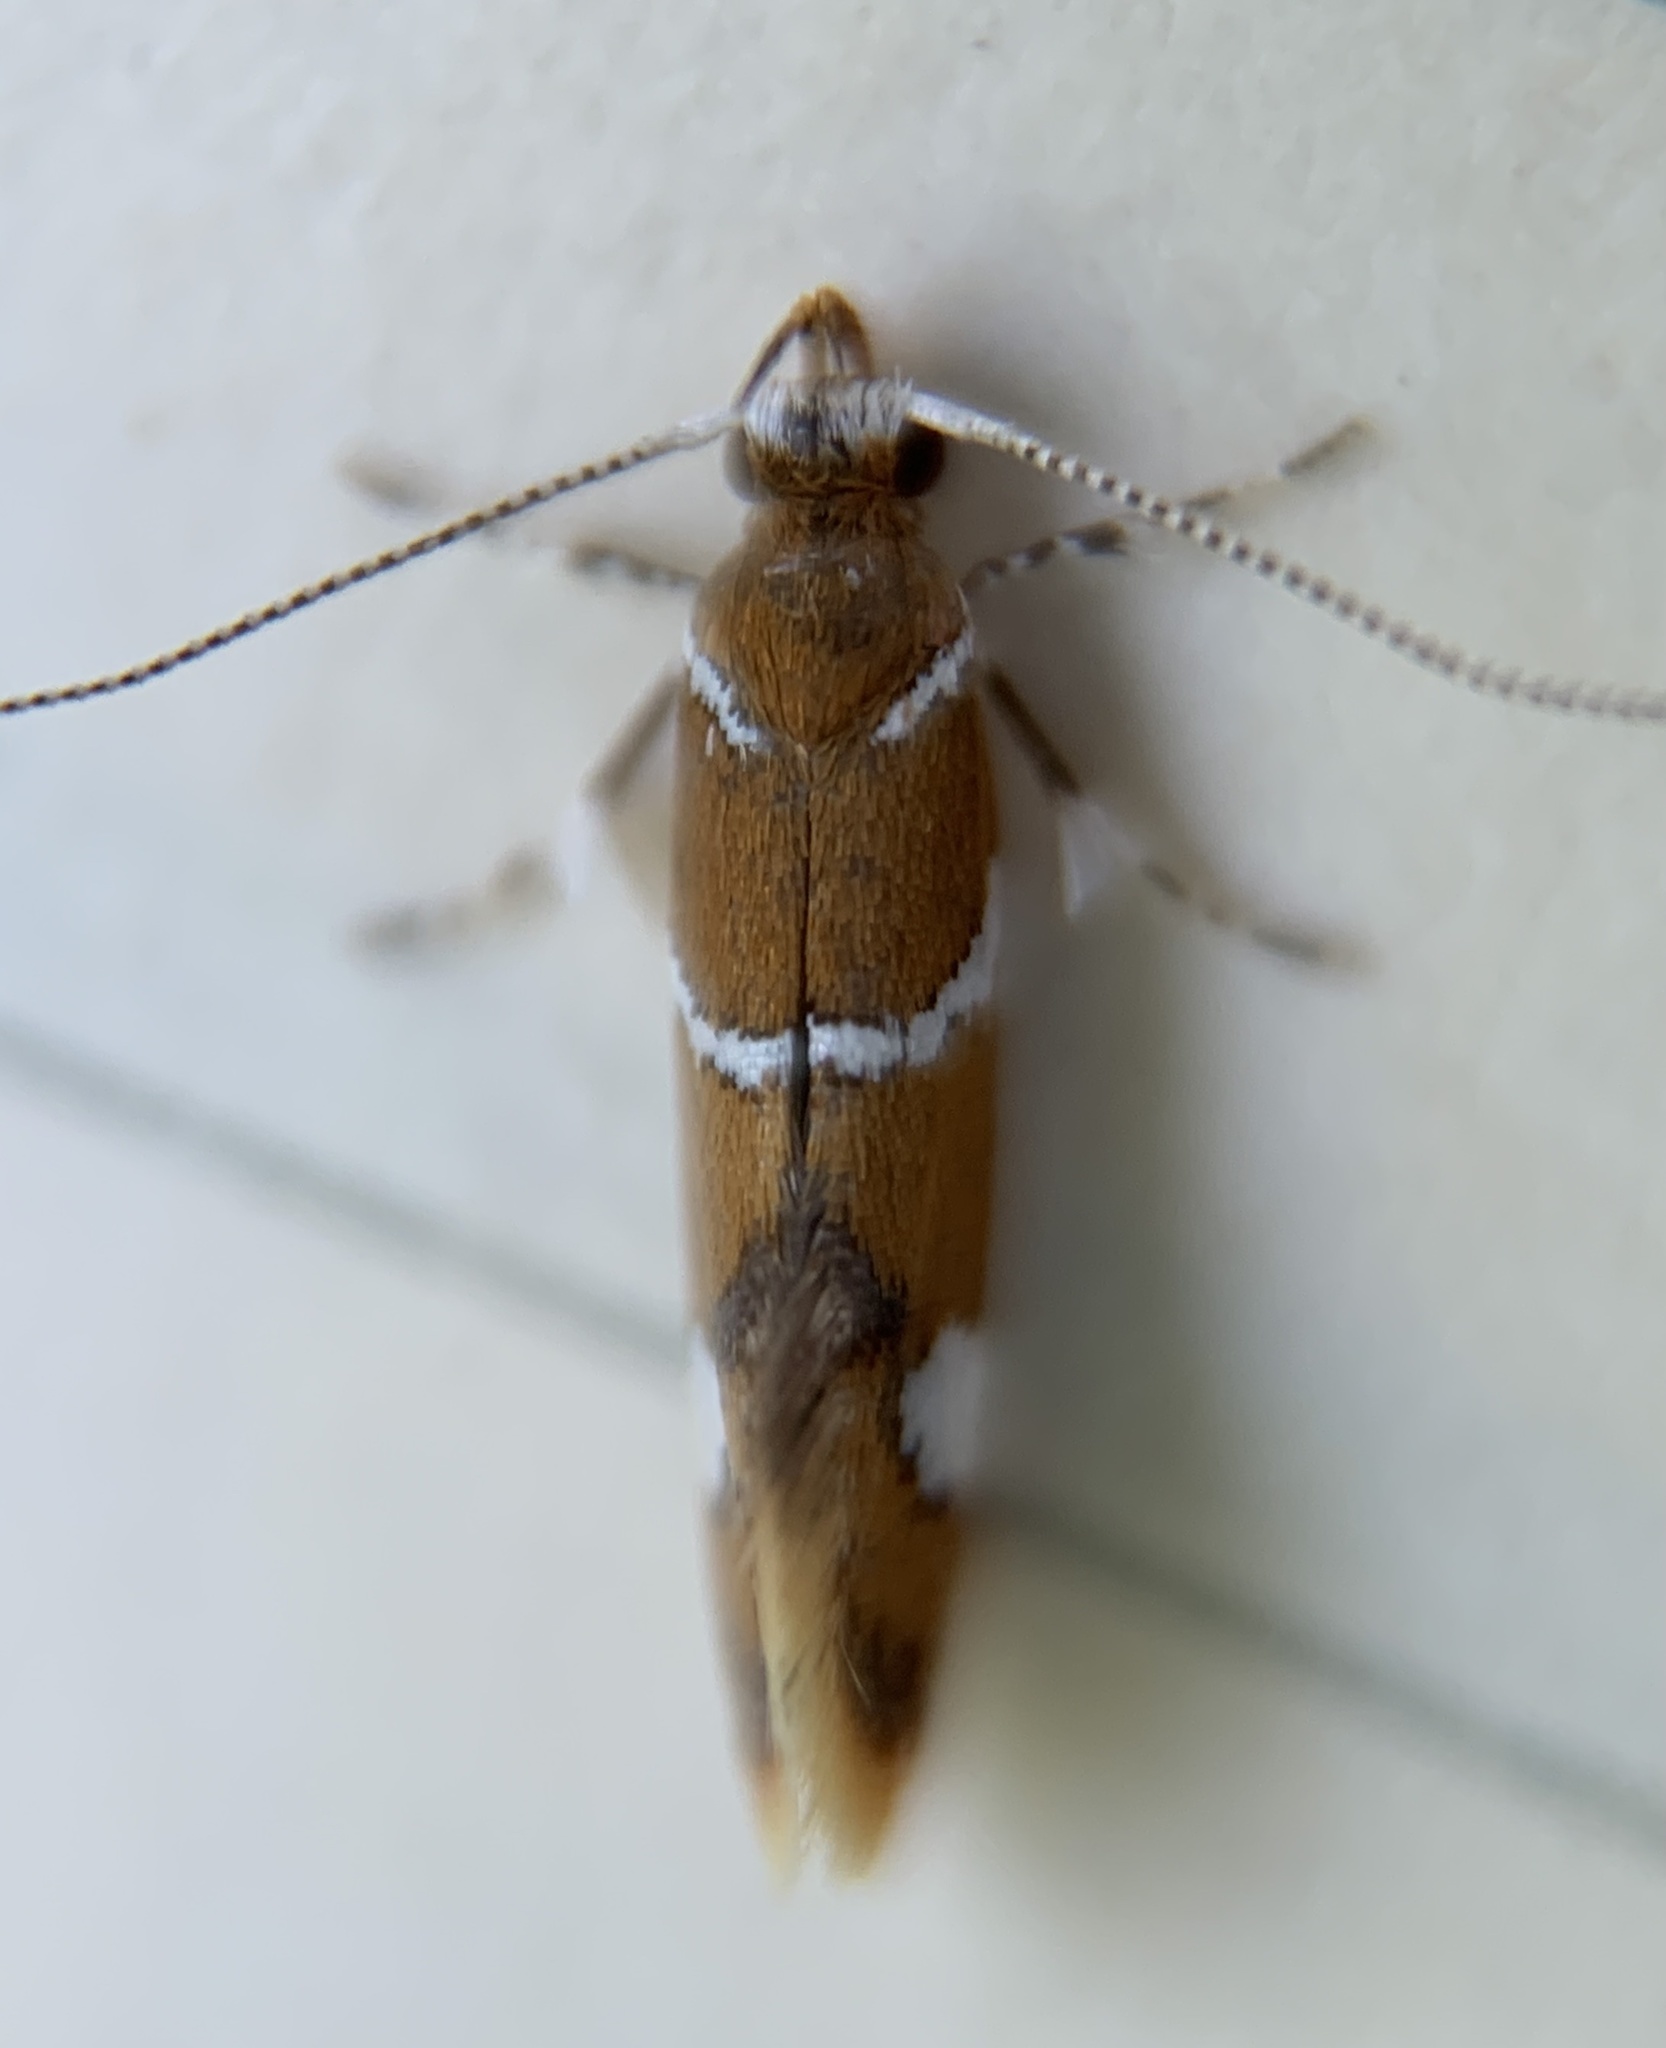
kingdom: Animalia
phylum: Arthropoda
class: Insecta
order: Lepidoptera
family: Oecophoridae
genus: Promalactis
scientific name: Promalactis suzukiella
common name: Moth
